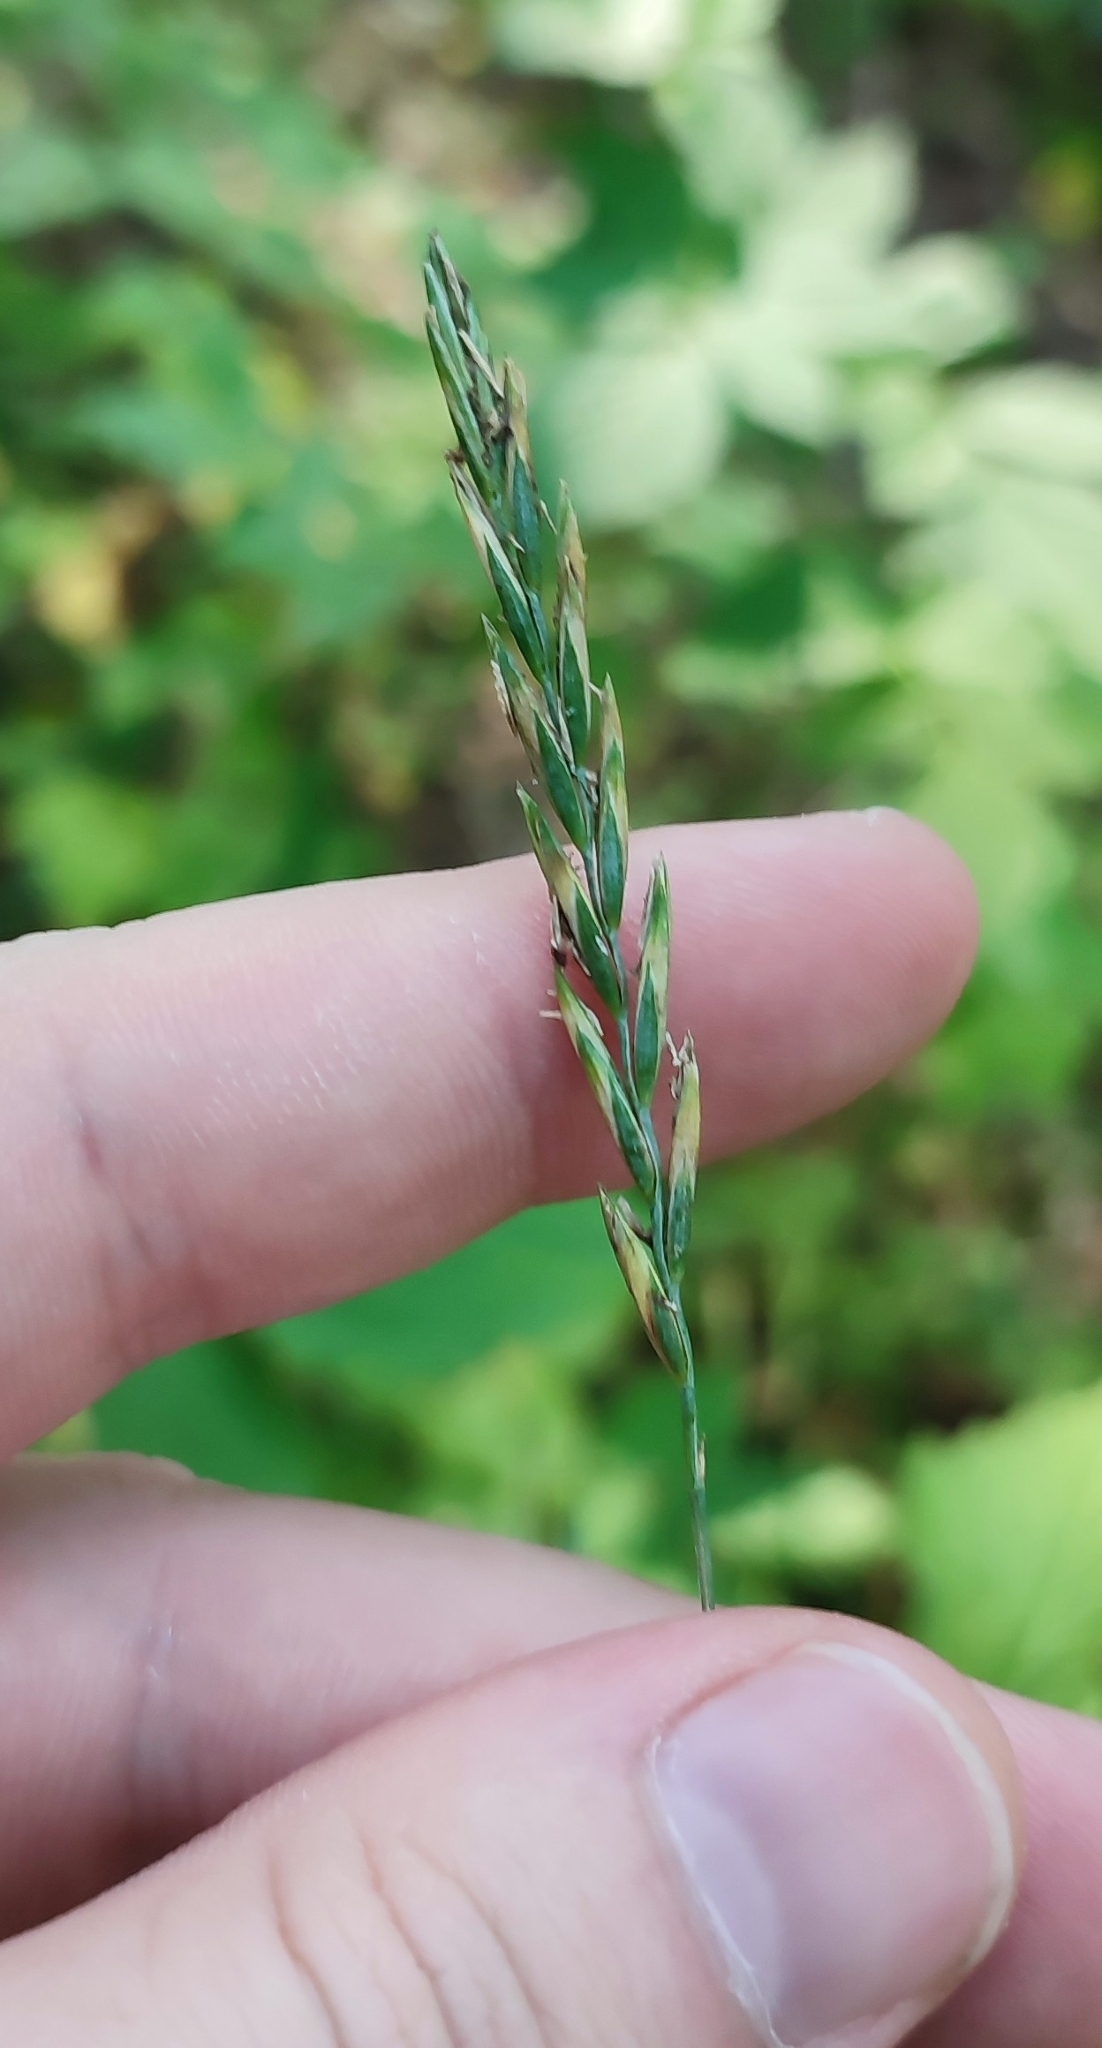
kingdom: Plantae
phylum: Tracheophyta
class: Liliopsida
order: Poales
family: Poaceae
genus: Elymus
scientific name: Elymus repens
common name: Quackgrass
